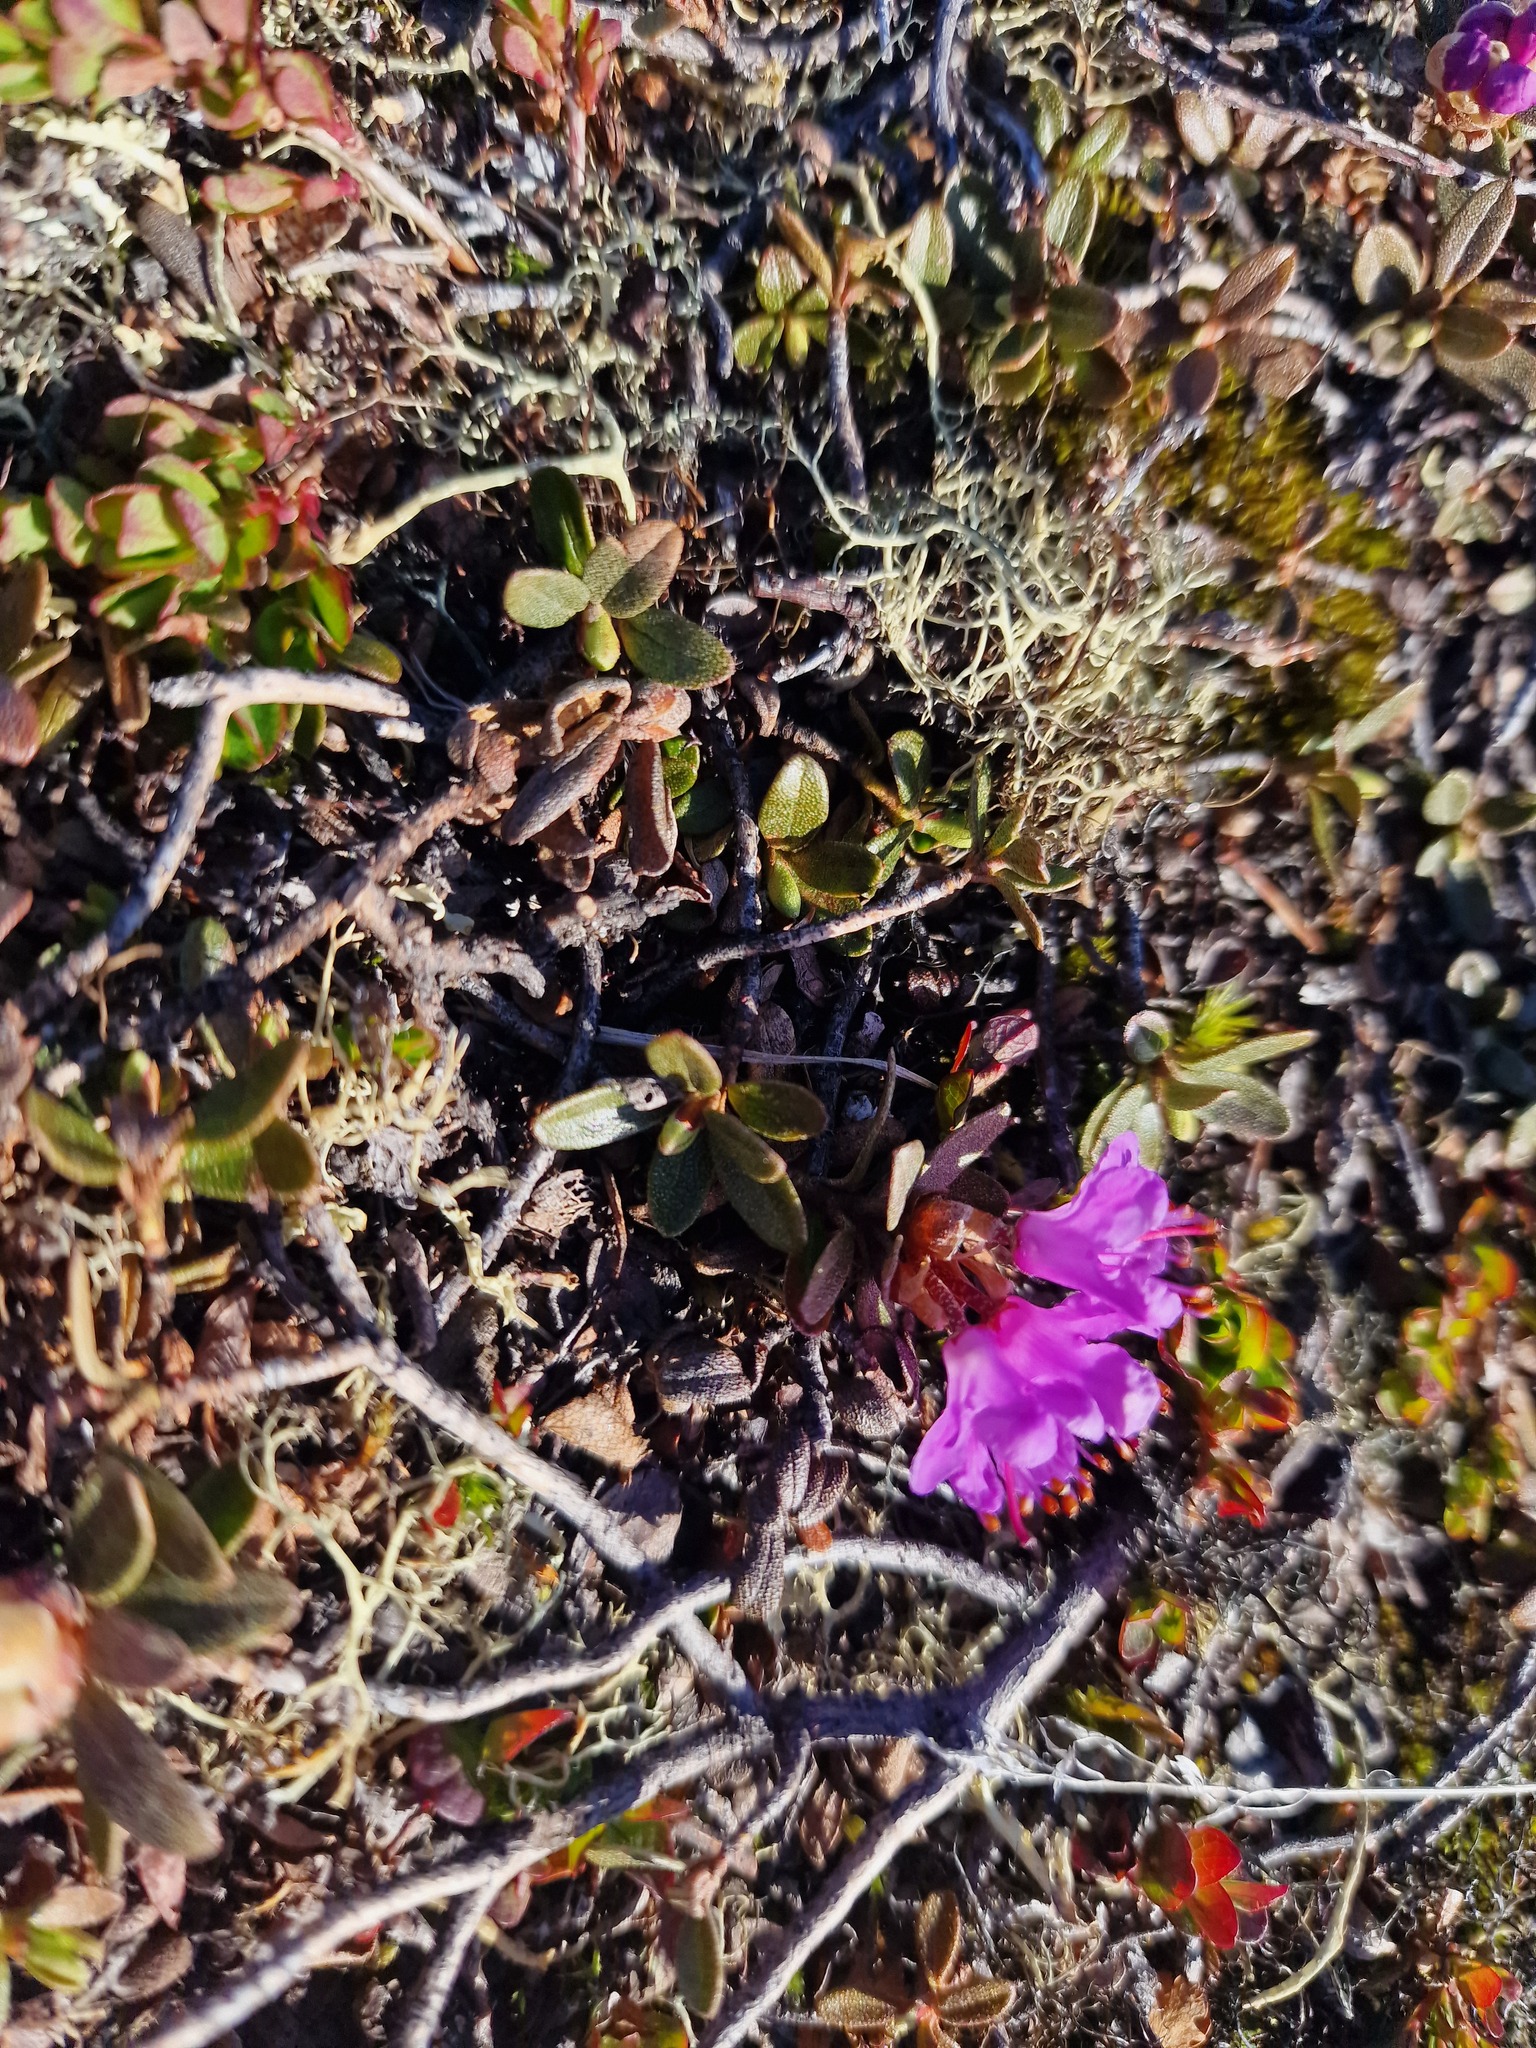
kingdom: Plantae
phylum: Tracheophyta
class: Magnoliopsida
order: Ericales
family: Ericaceae
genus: Rhododendron
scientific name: Rhododendron lapponicum
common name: Lapland rhododendron
